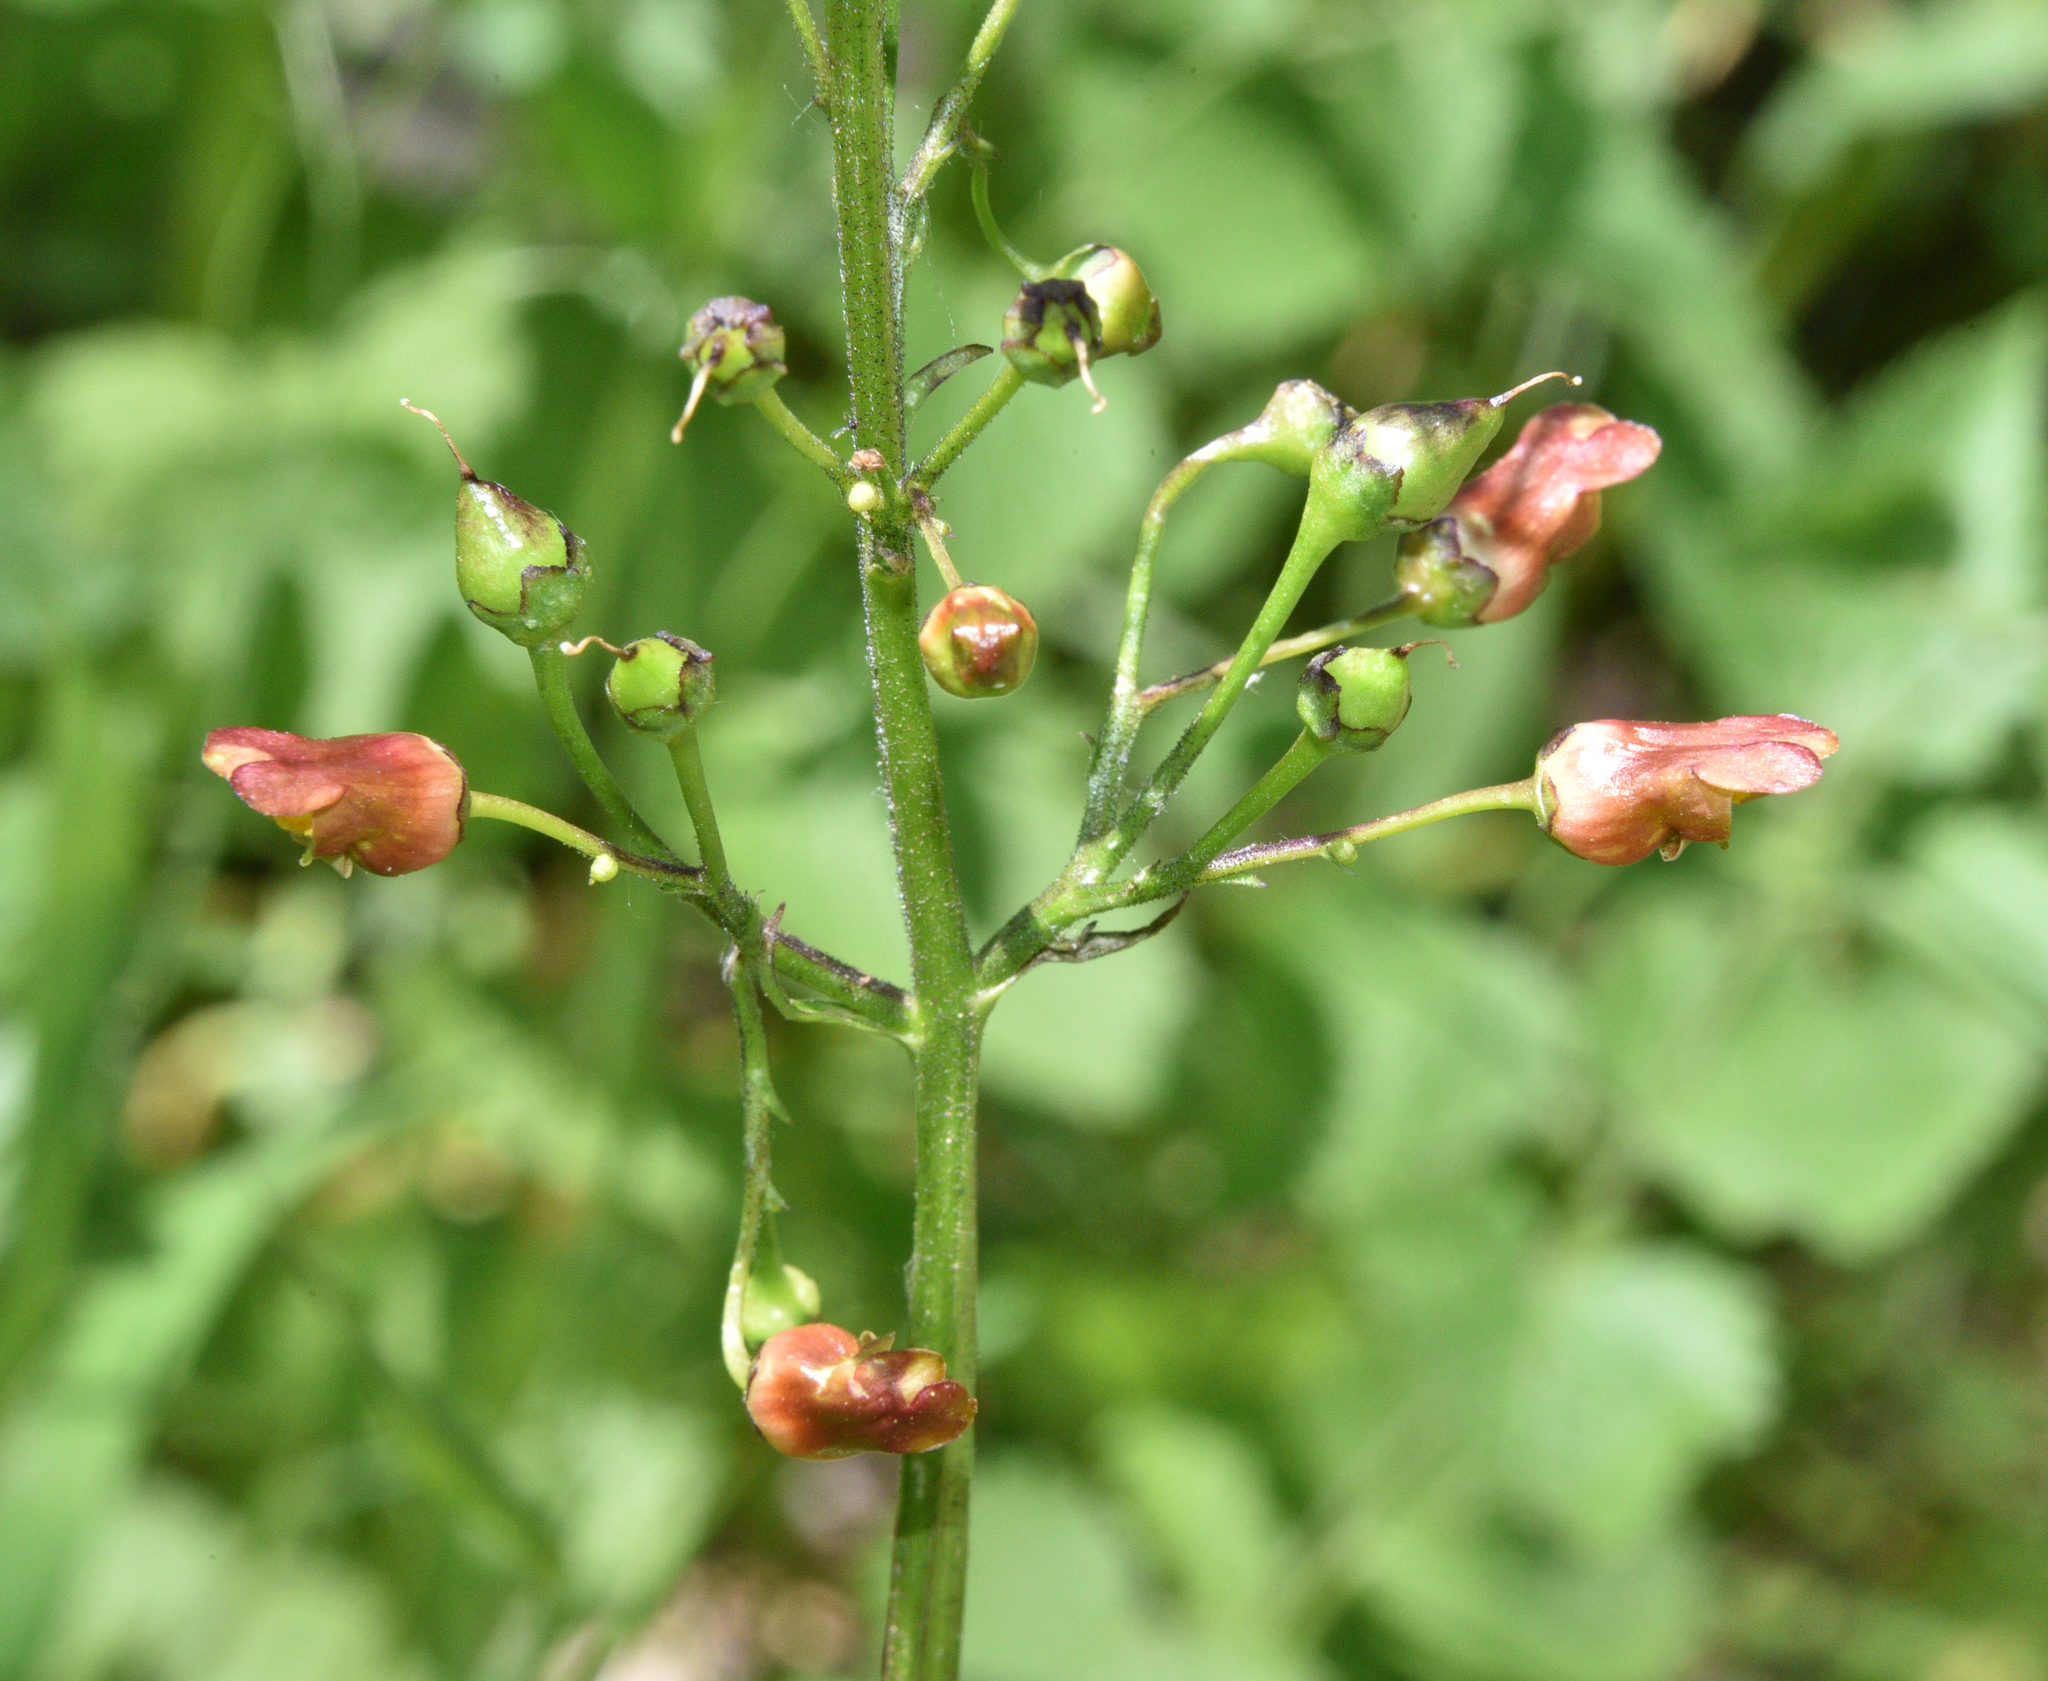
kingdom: Plantae
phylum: Tracheophyta
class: Magnoliopsida
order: Lamiales
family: Scrophulariaceae
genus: Scrophularia
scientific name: Scrophularia lanceolata
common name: American figwort
